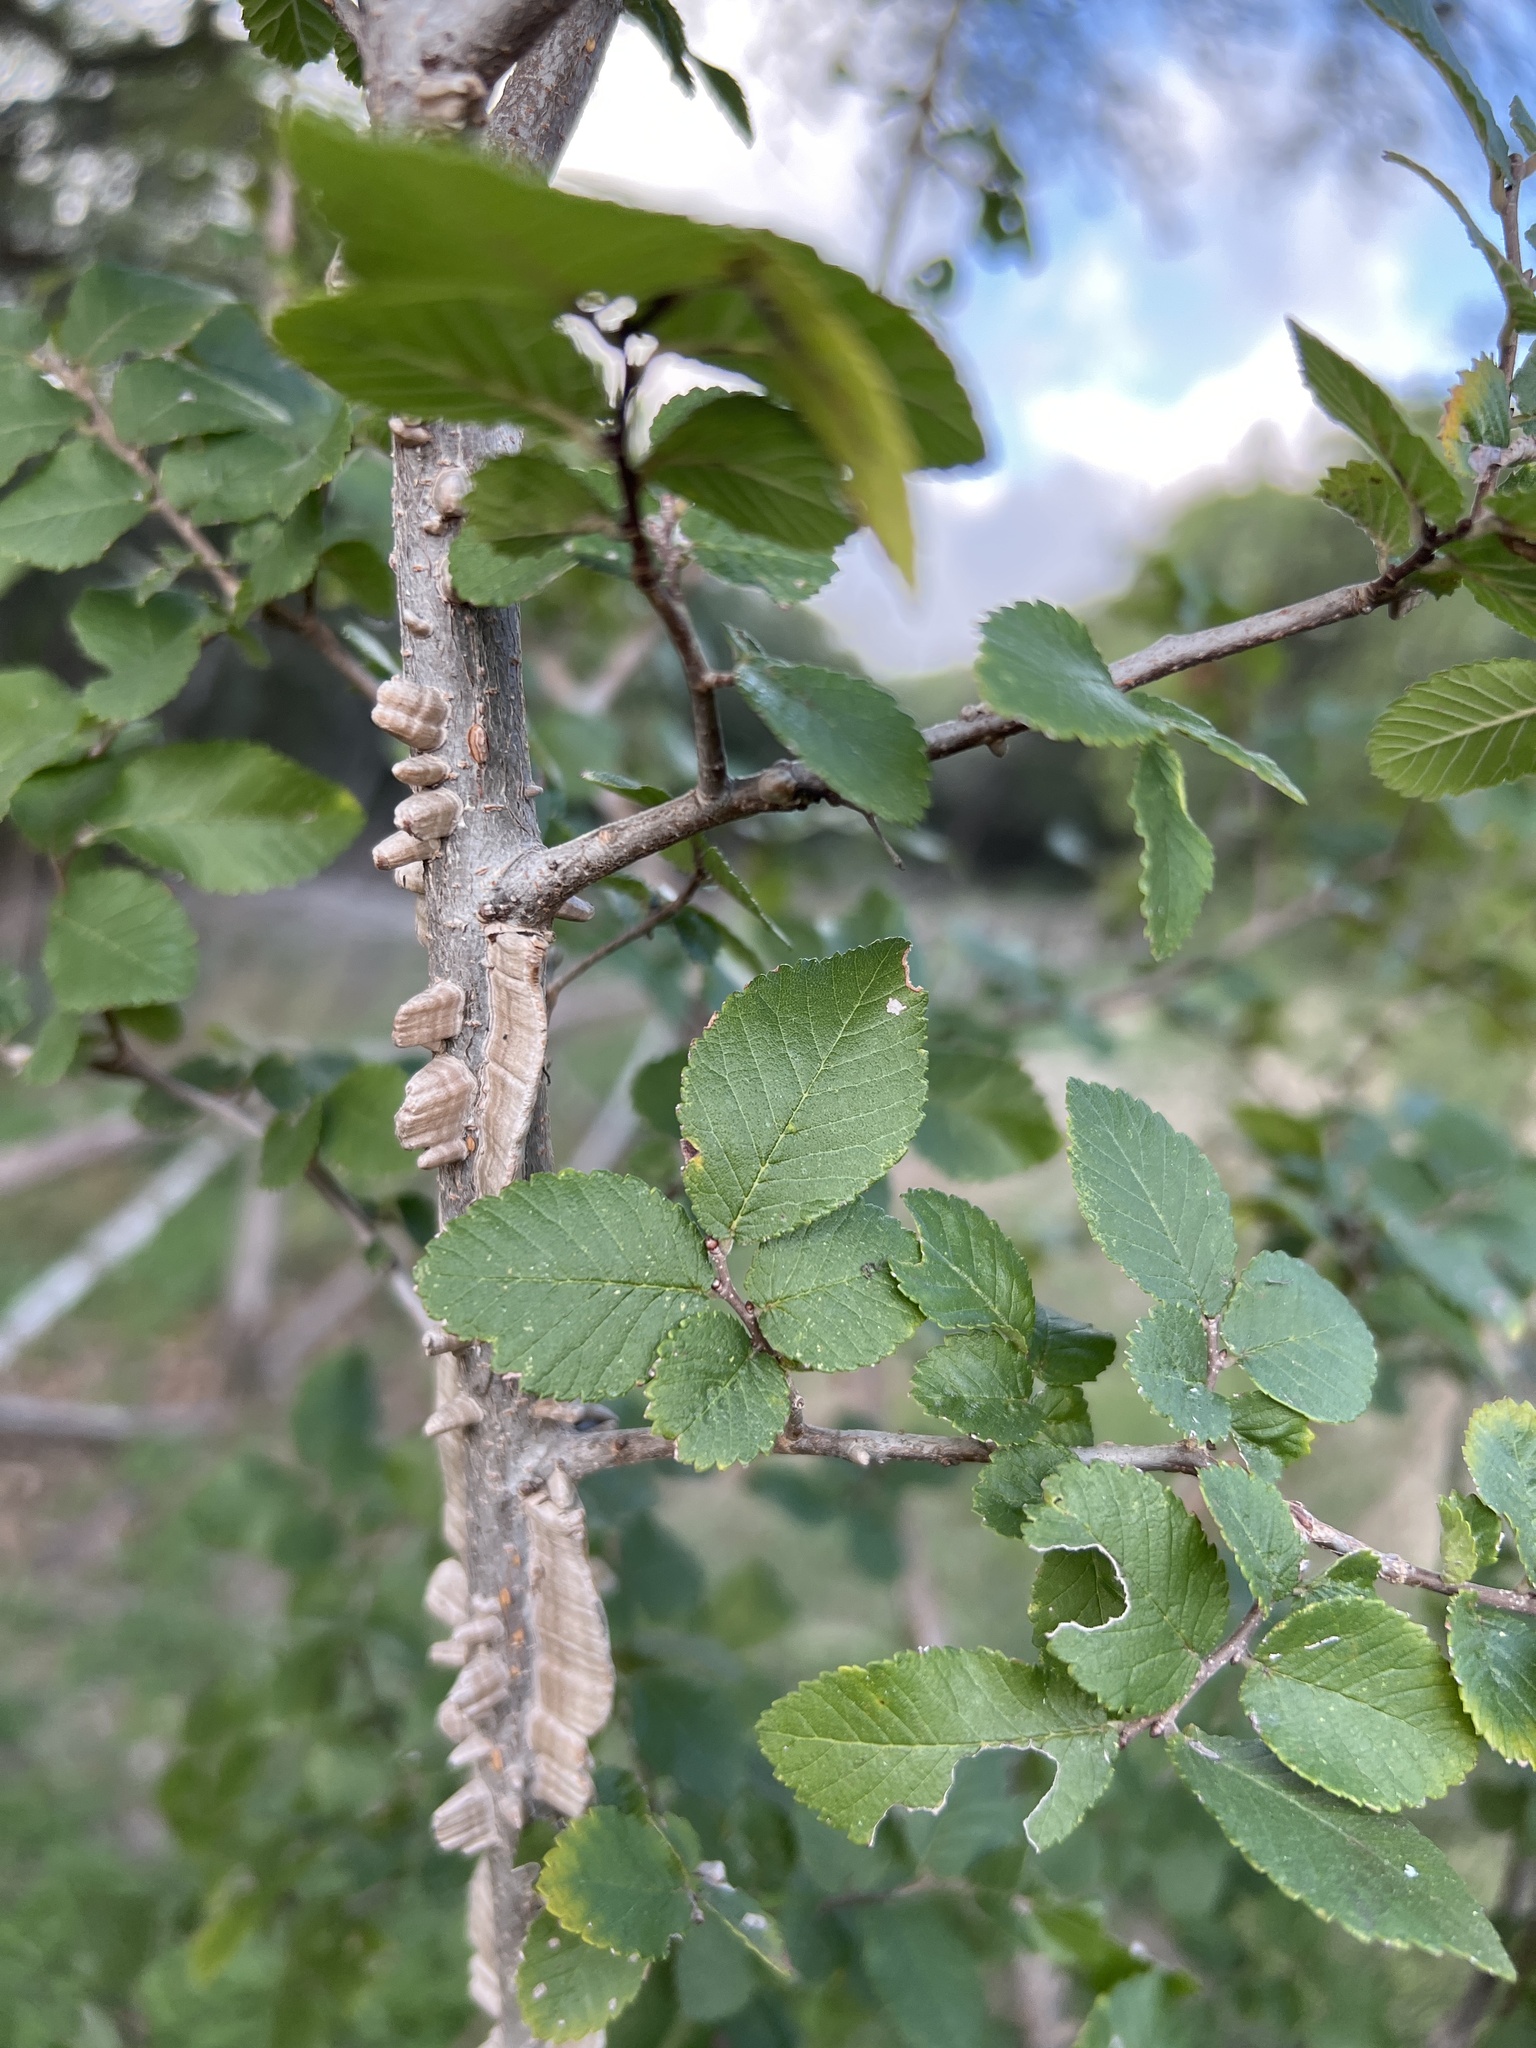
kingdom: Plantae
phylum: Tracheophyta
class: Magnoliopsida
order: Rosales
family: Ulmaceae
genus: Ulmus
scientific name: Ulmus crassifolia
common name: Basket elm
